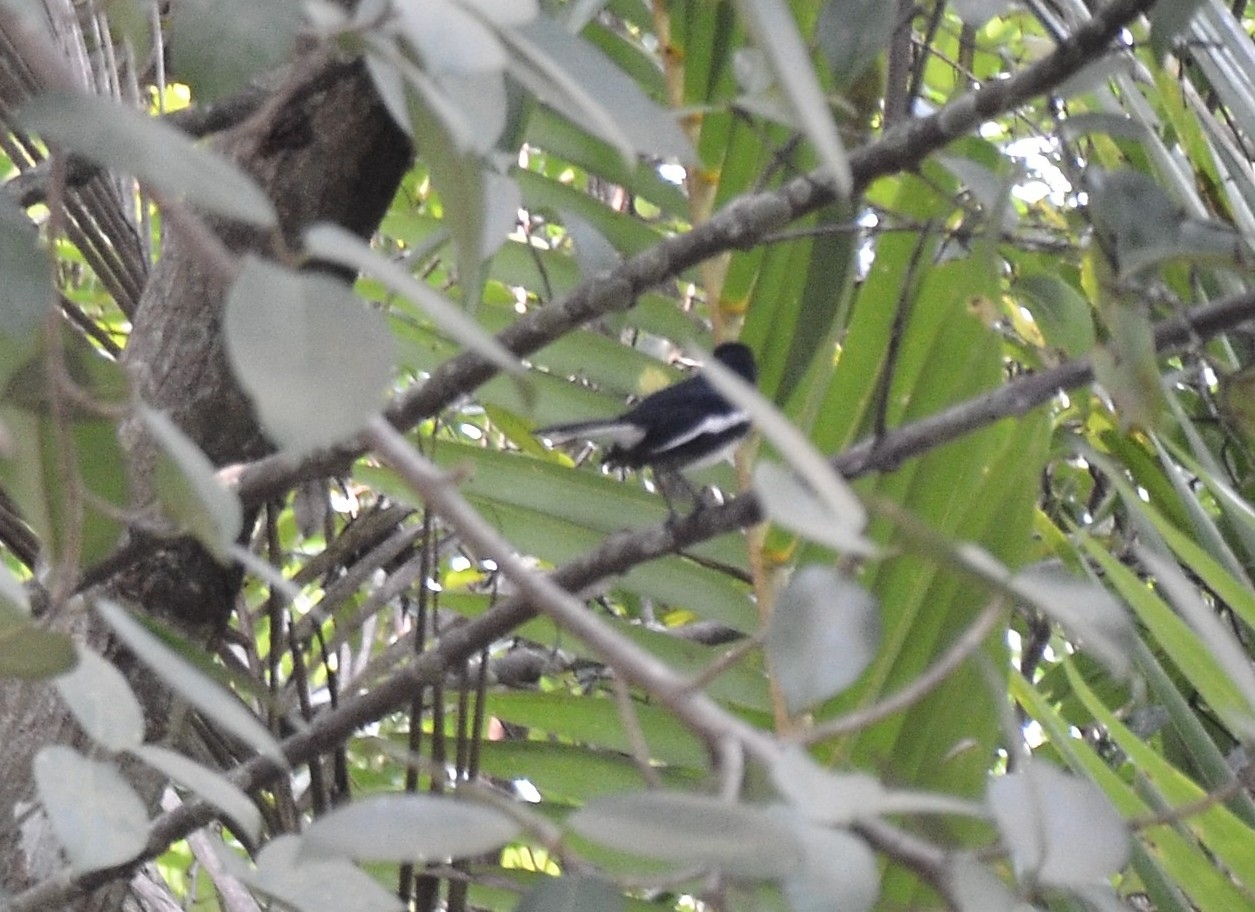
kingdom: Animalia
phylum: Chordata
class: Aves
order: Passeriformes
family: Muscicapidae
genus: Copsychus
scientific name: Copsychus saularis
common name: Oriental magpie-robin
